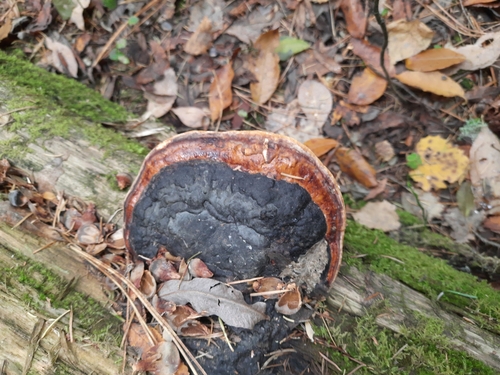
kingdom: Fungi
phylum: Basidiomycota
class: Agaricomycetes
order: Polyporales
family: Fomitopsidaceae
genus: Fomitopsis
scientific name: Fomitopsis pinicola
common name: Red-belted bracket
